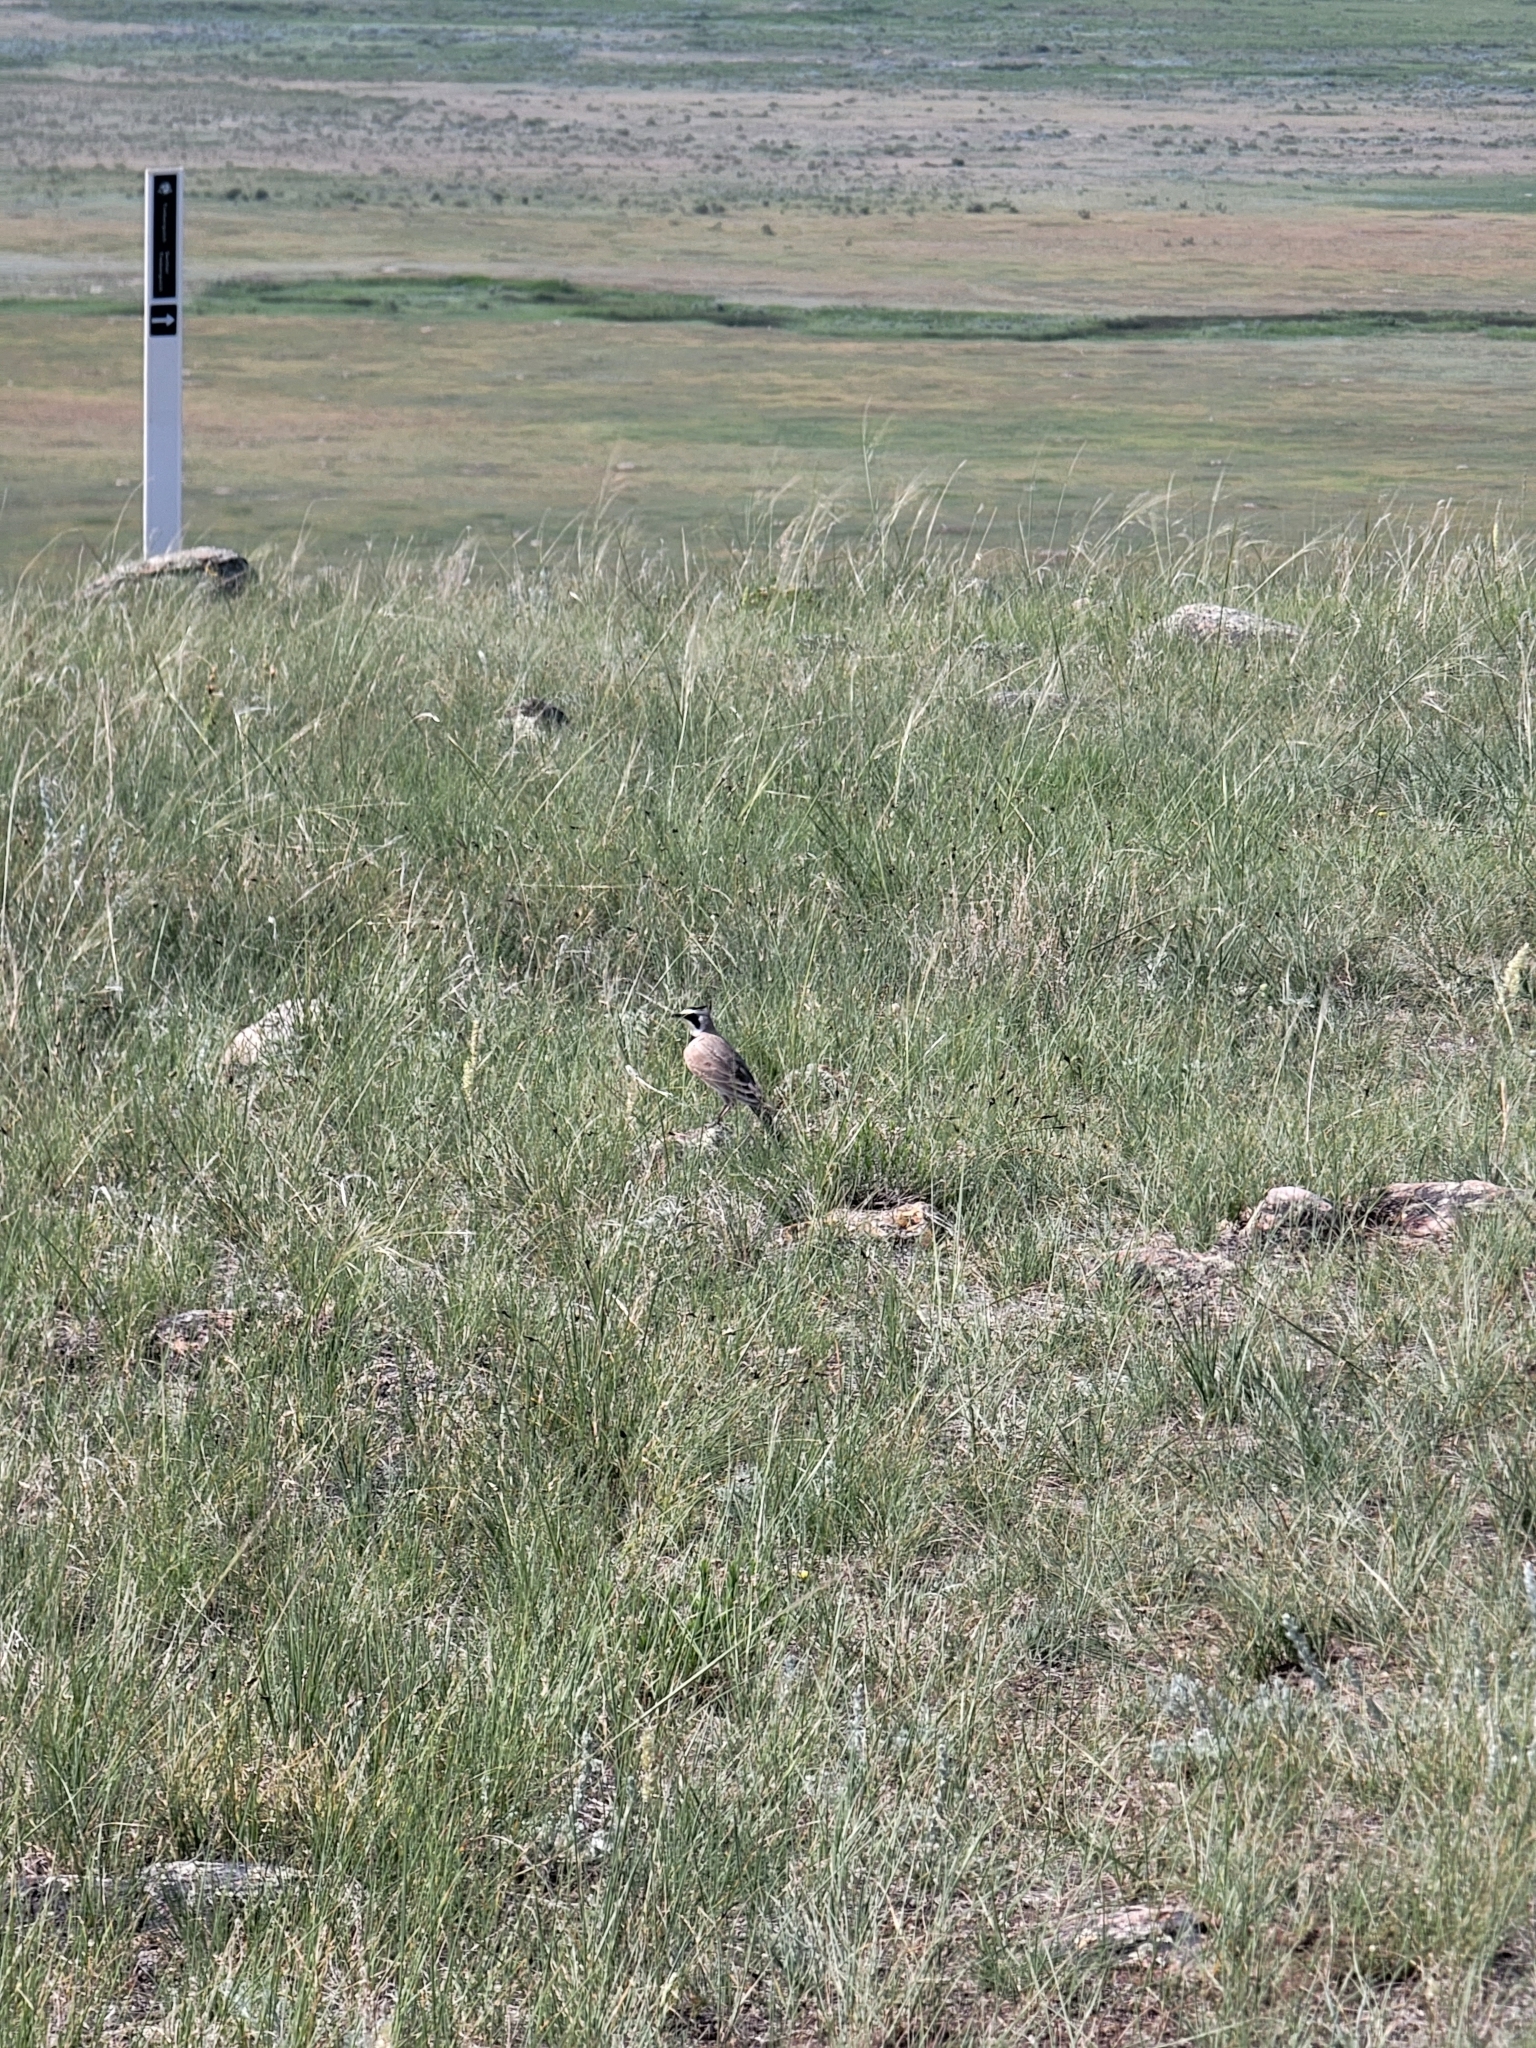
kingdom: Animalia
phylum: Chordata
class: Aves
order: Passeriformes
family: Alaudidae
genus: Eremophila
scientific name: Eremophila alpestris
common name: Horned lark
